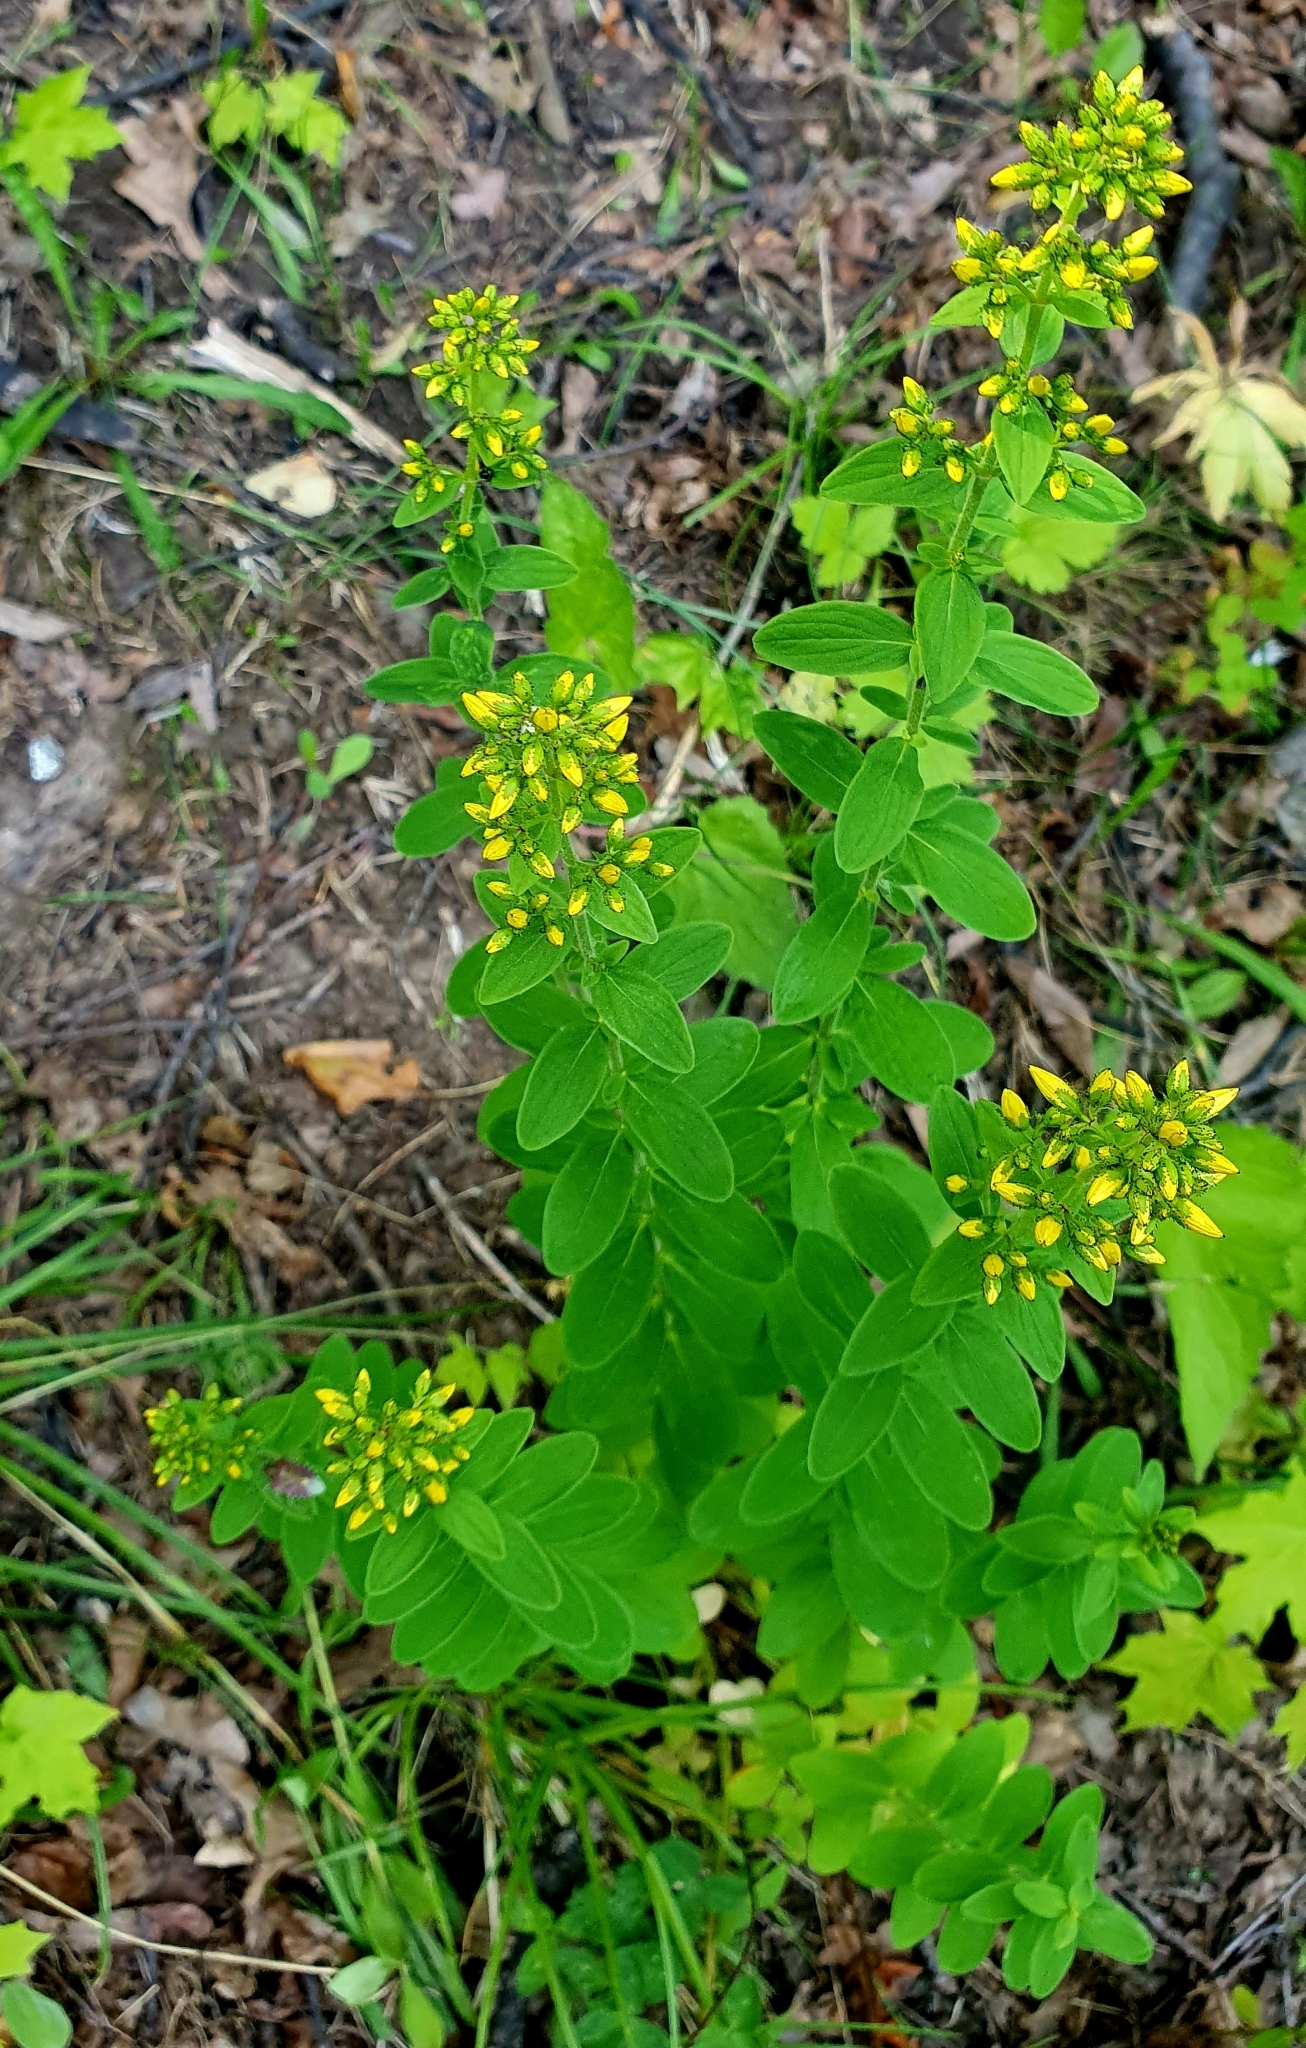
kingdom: Plantae
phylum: Tracheophyta
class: Magnoliopsida
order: Malpighiales
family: Hypericaceae
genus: Hypericum
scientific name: Hypericum hirsutum
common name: Hairy st. john's-wort
